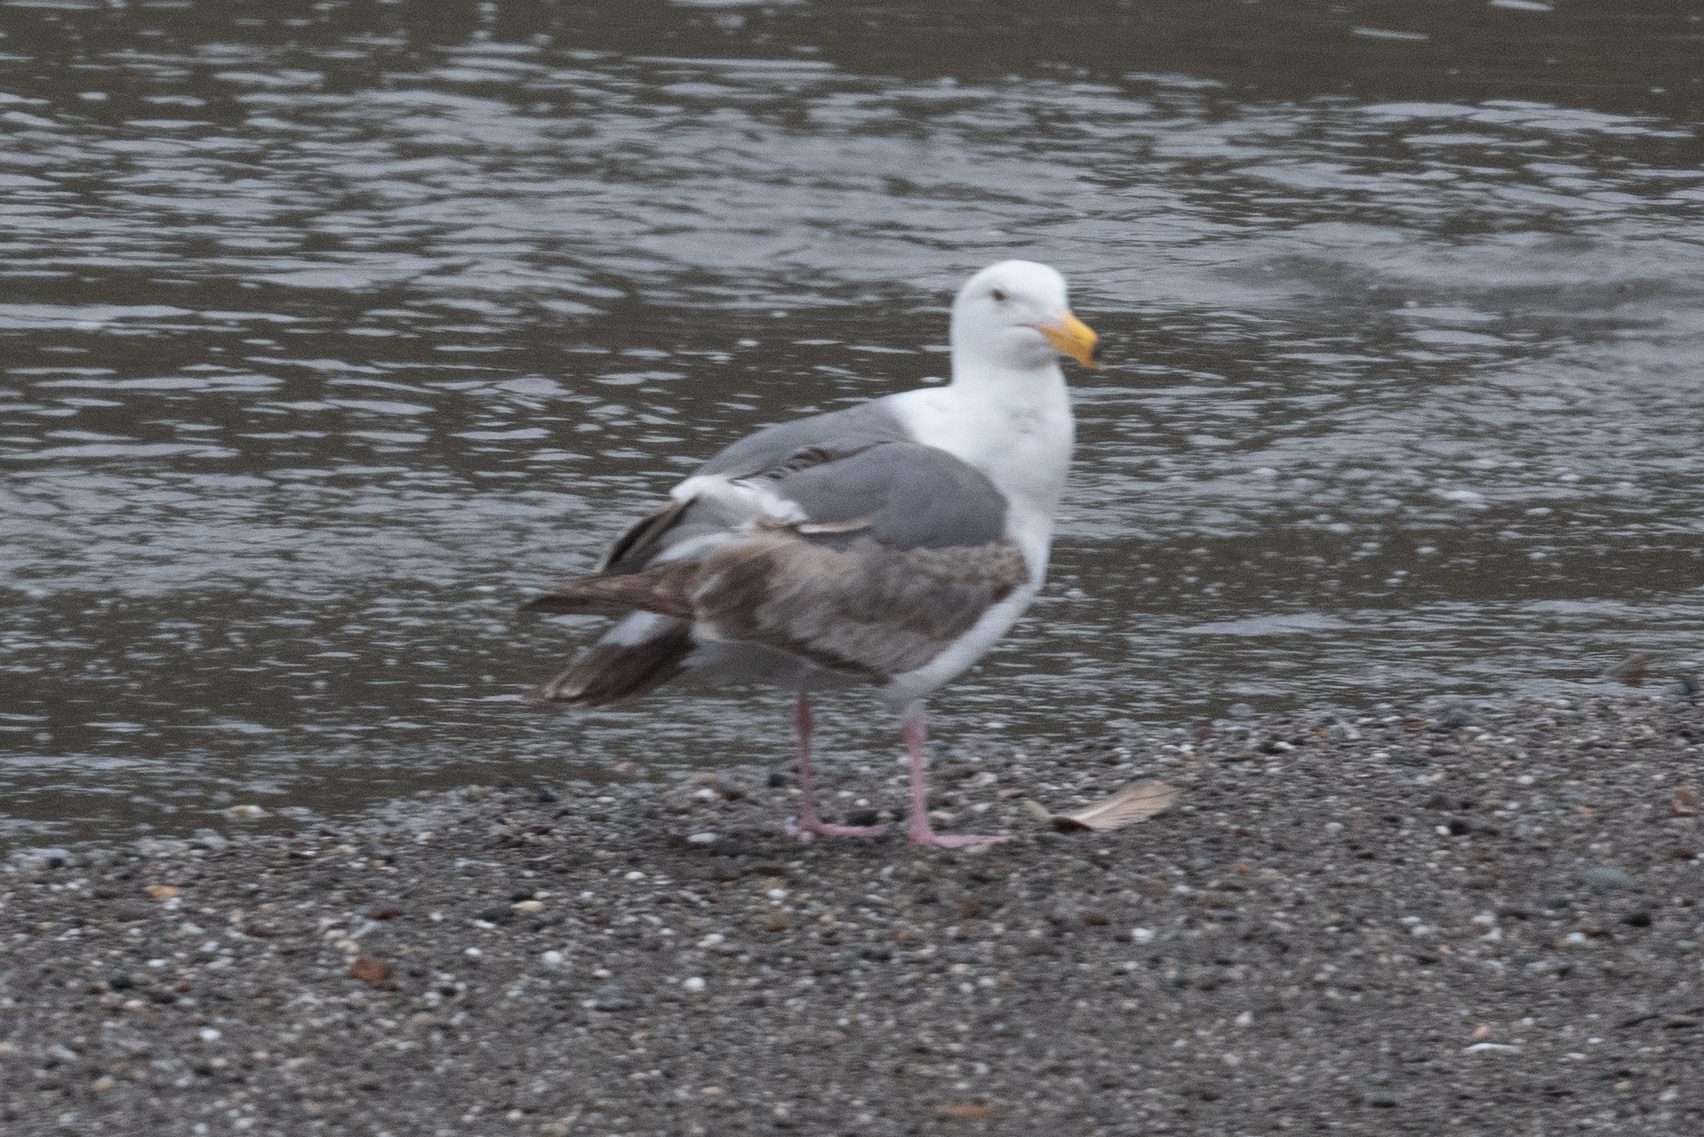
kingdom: Animalia
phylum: Chordata
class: Aves
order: Charadriiformes
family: Laridae
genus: Larus
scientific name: Larus occidentalis
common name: Western gull
